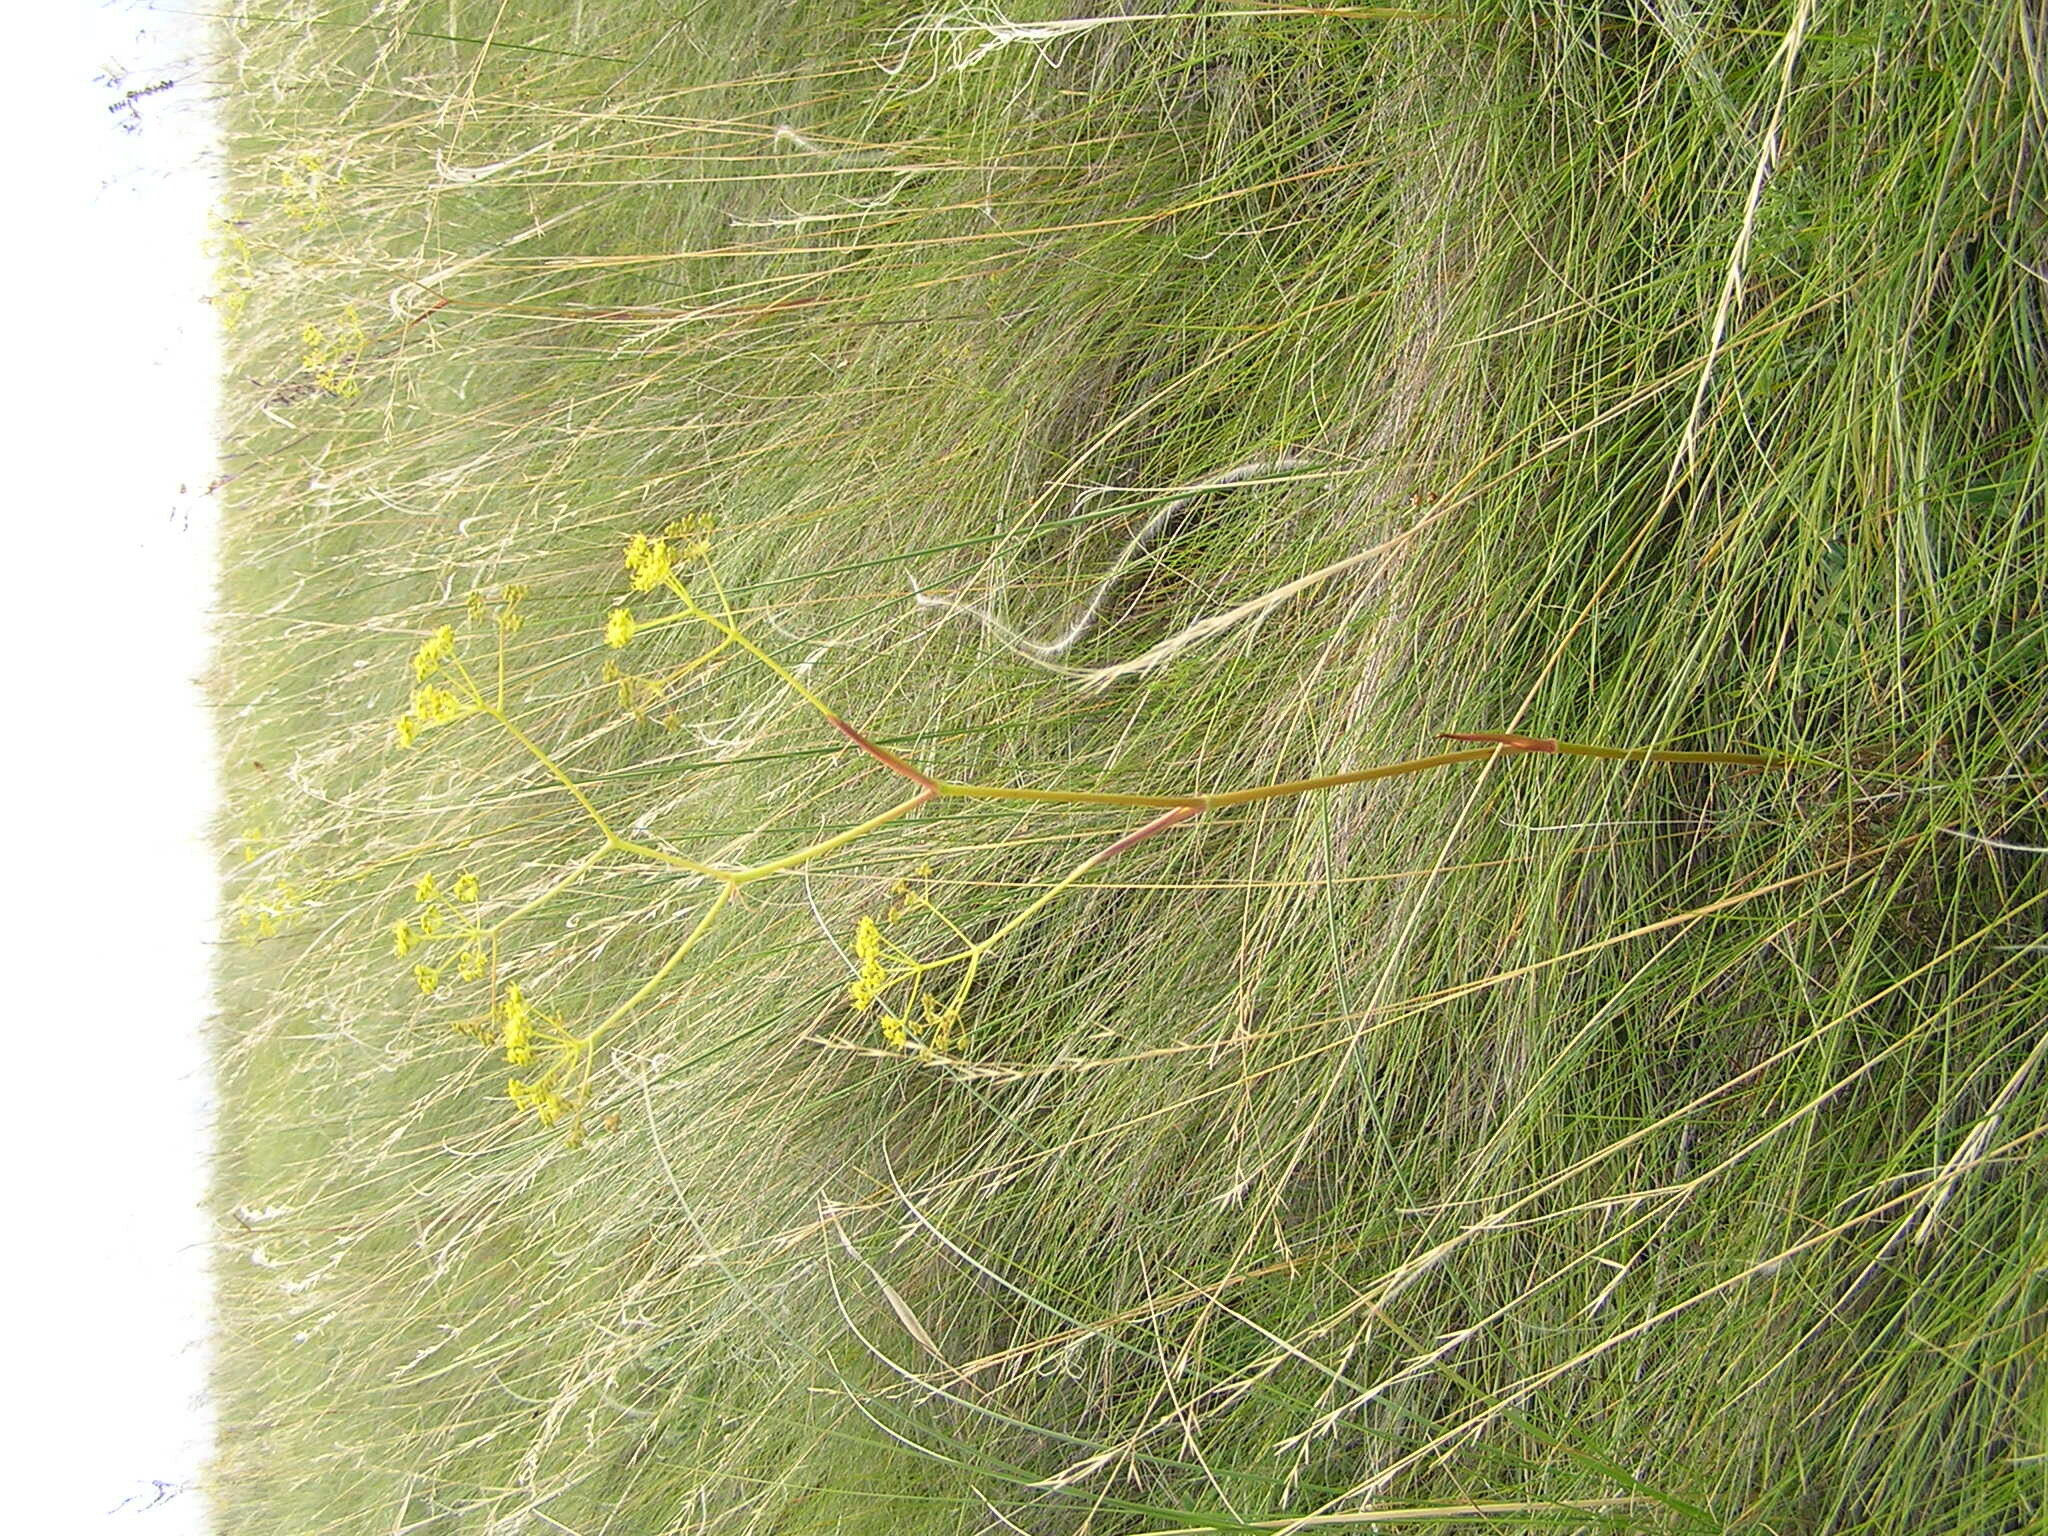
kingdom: Plantae
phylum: Tracheophyta
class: Magnoliopsida
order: Apiales
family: Apiaceae
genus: Ferula
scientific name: Ferula tatarica
